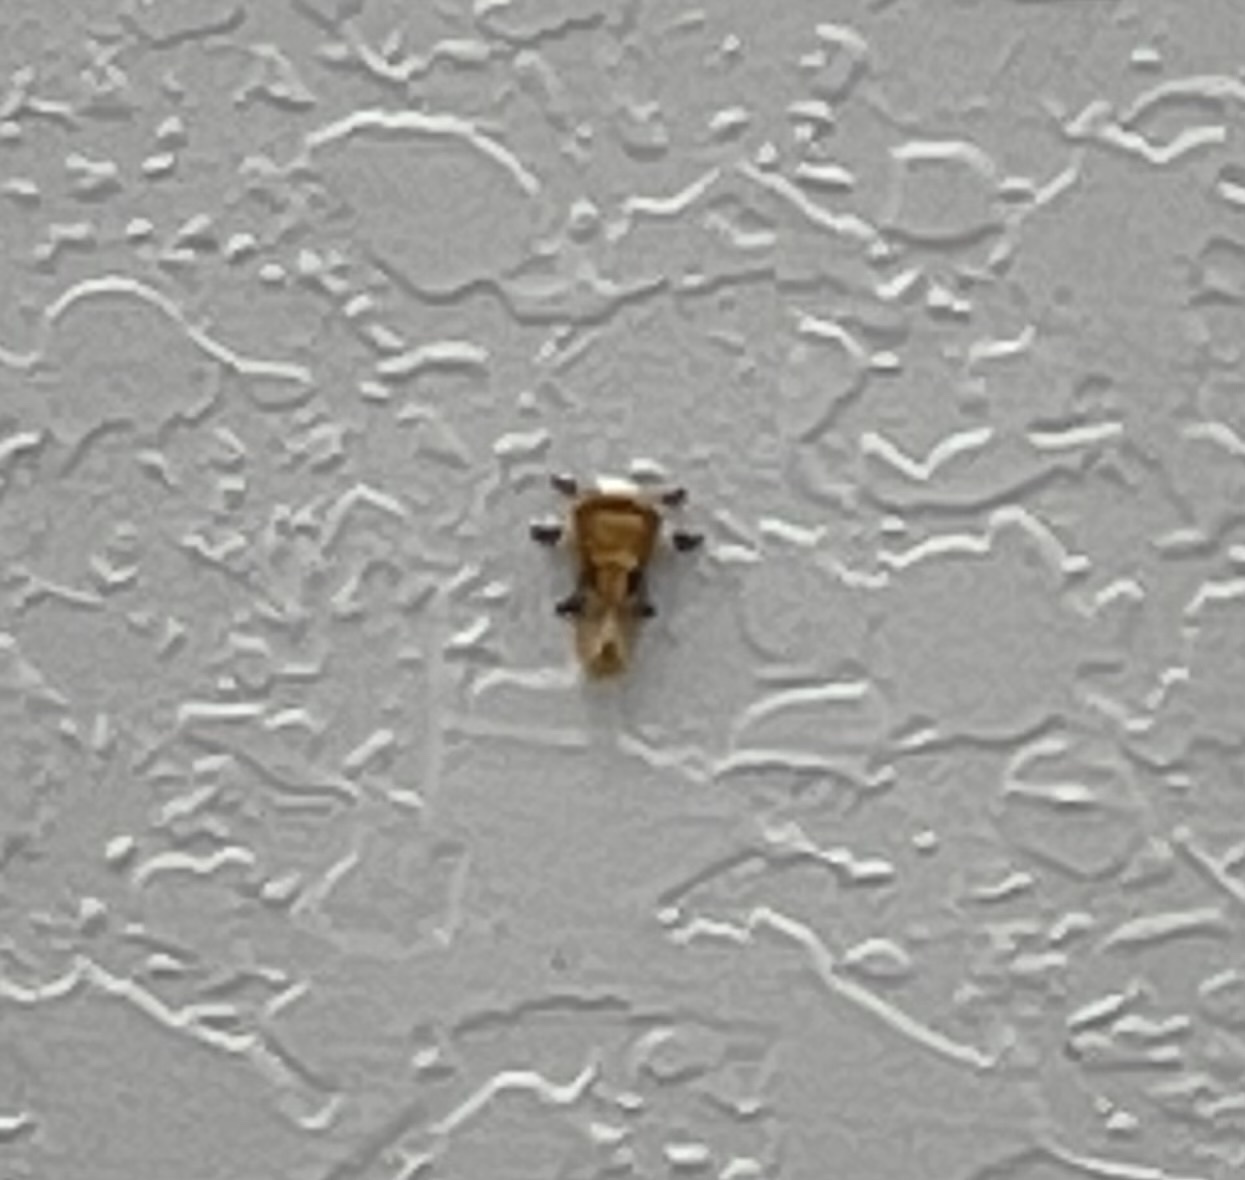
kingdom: Animalia
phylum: Arthropoda
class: Insecta
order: Lepidoptera
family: Megalopygidae
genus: Megalopyge
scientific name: Megalopyge opercularis
